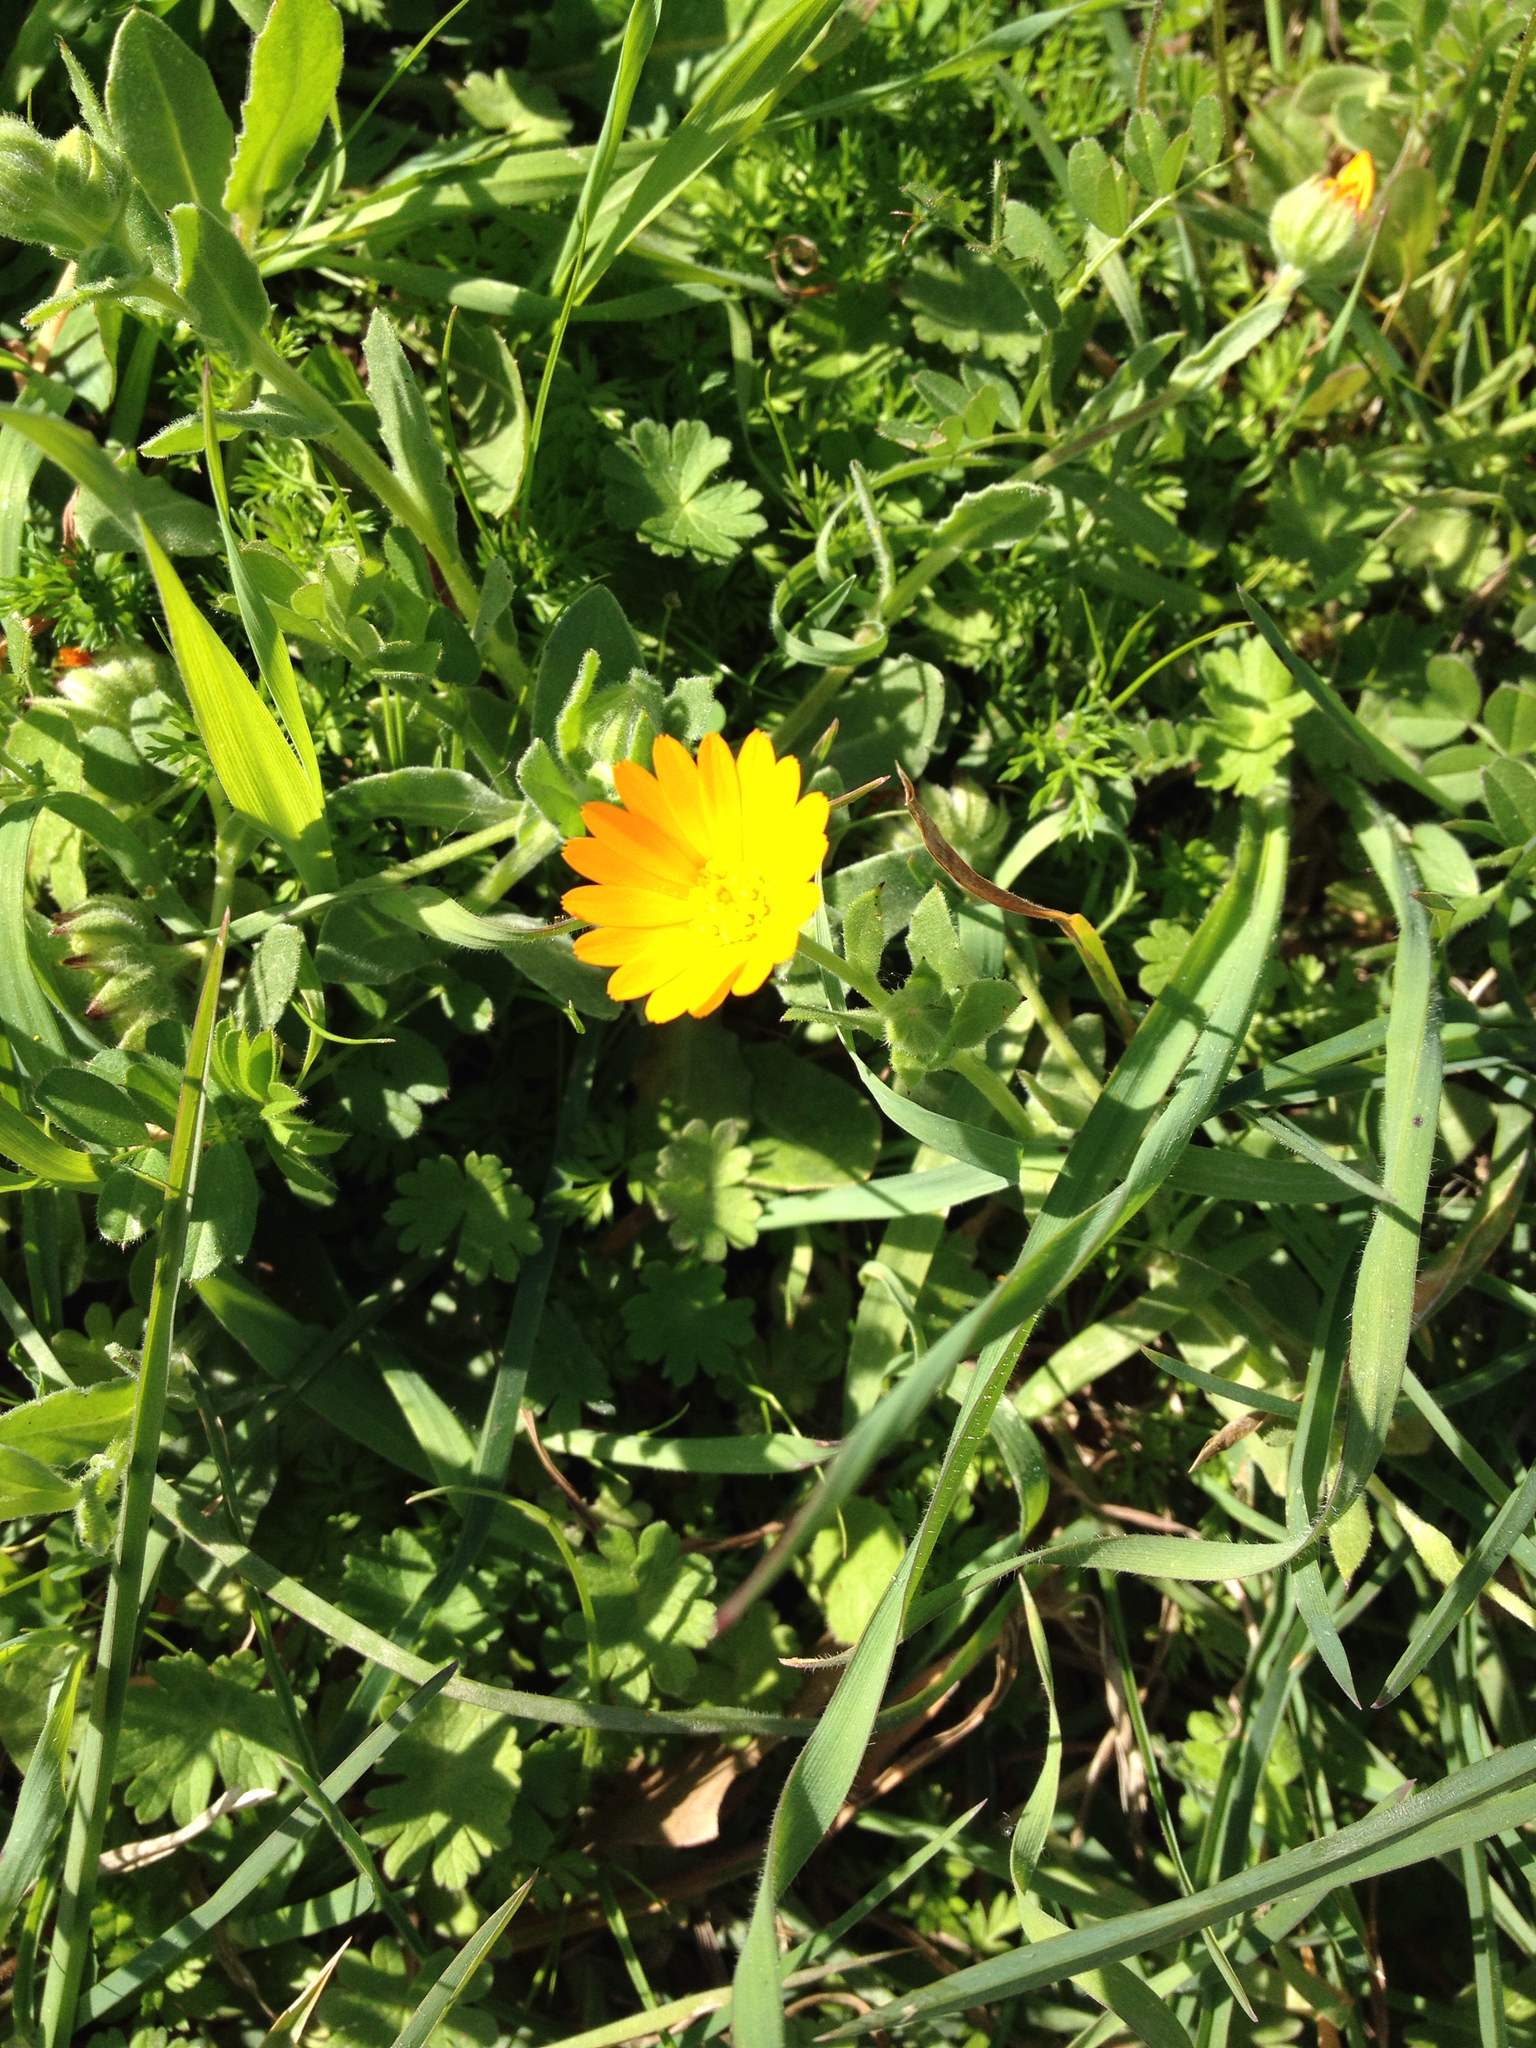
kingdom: Plantae
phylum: Tracheophyta
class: Magnoliopsida
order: Asterales
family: Asteraceae
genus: Calendula
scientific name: Calendula arvensis
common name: Field marigold
